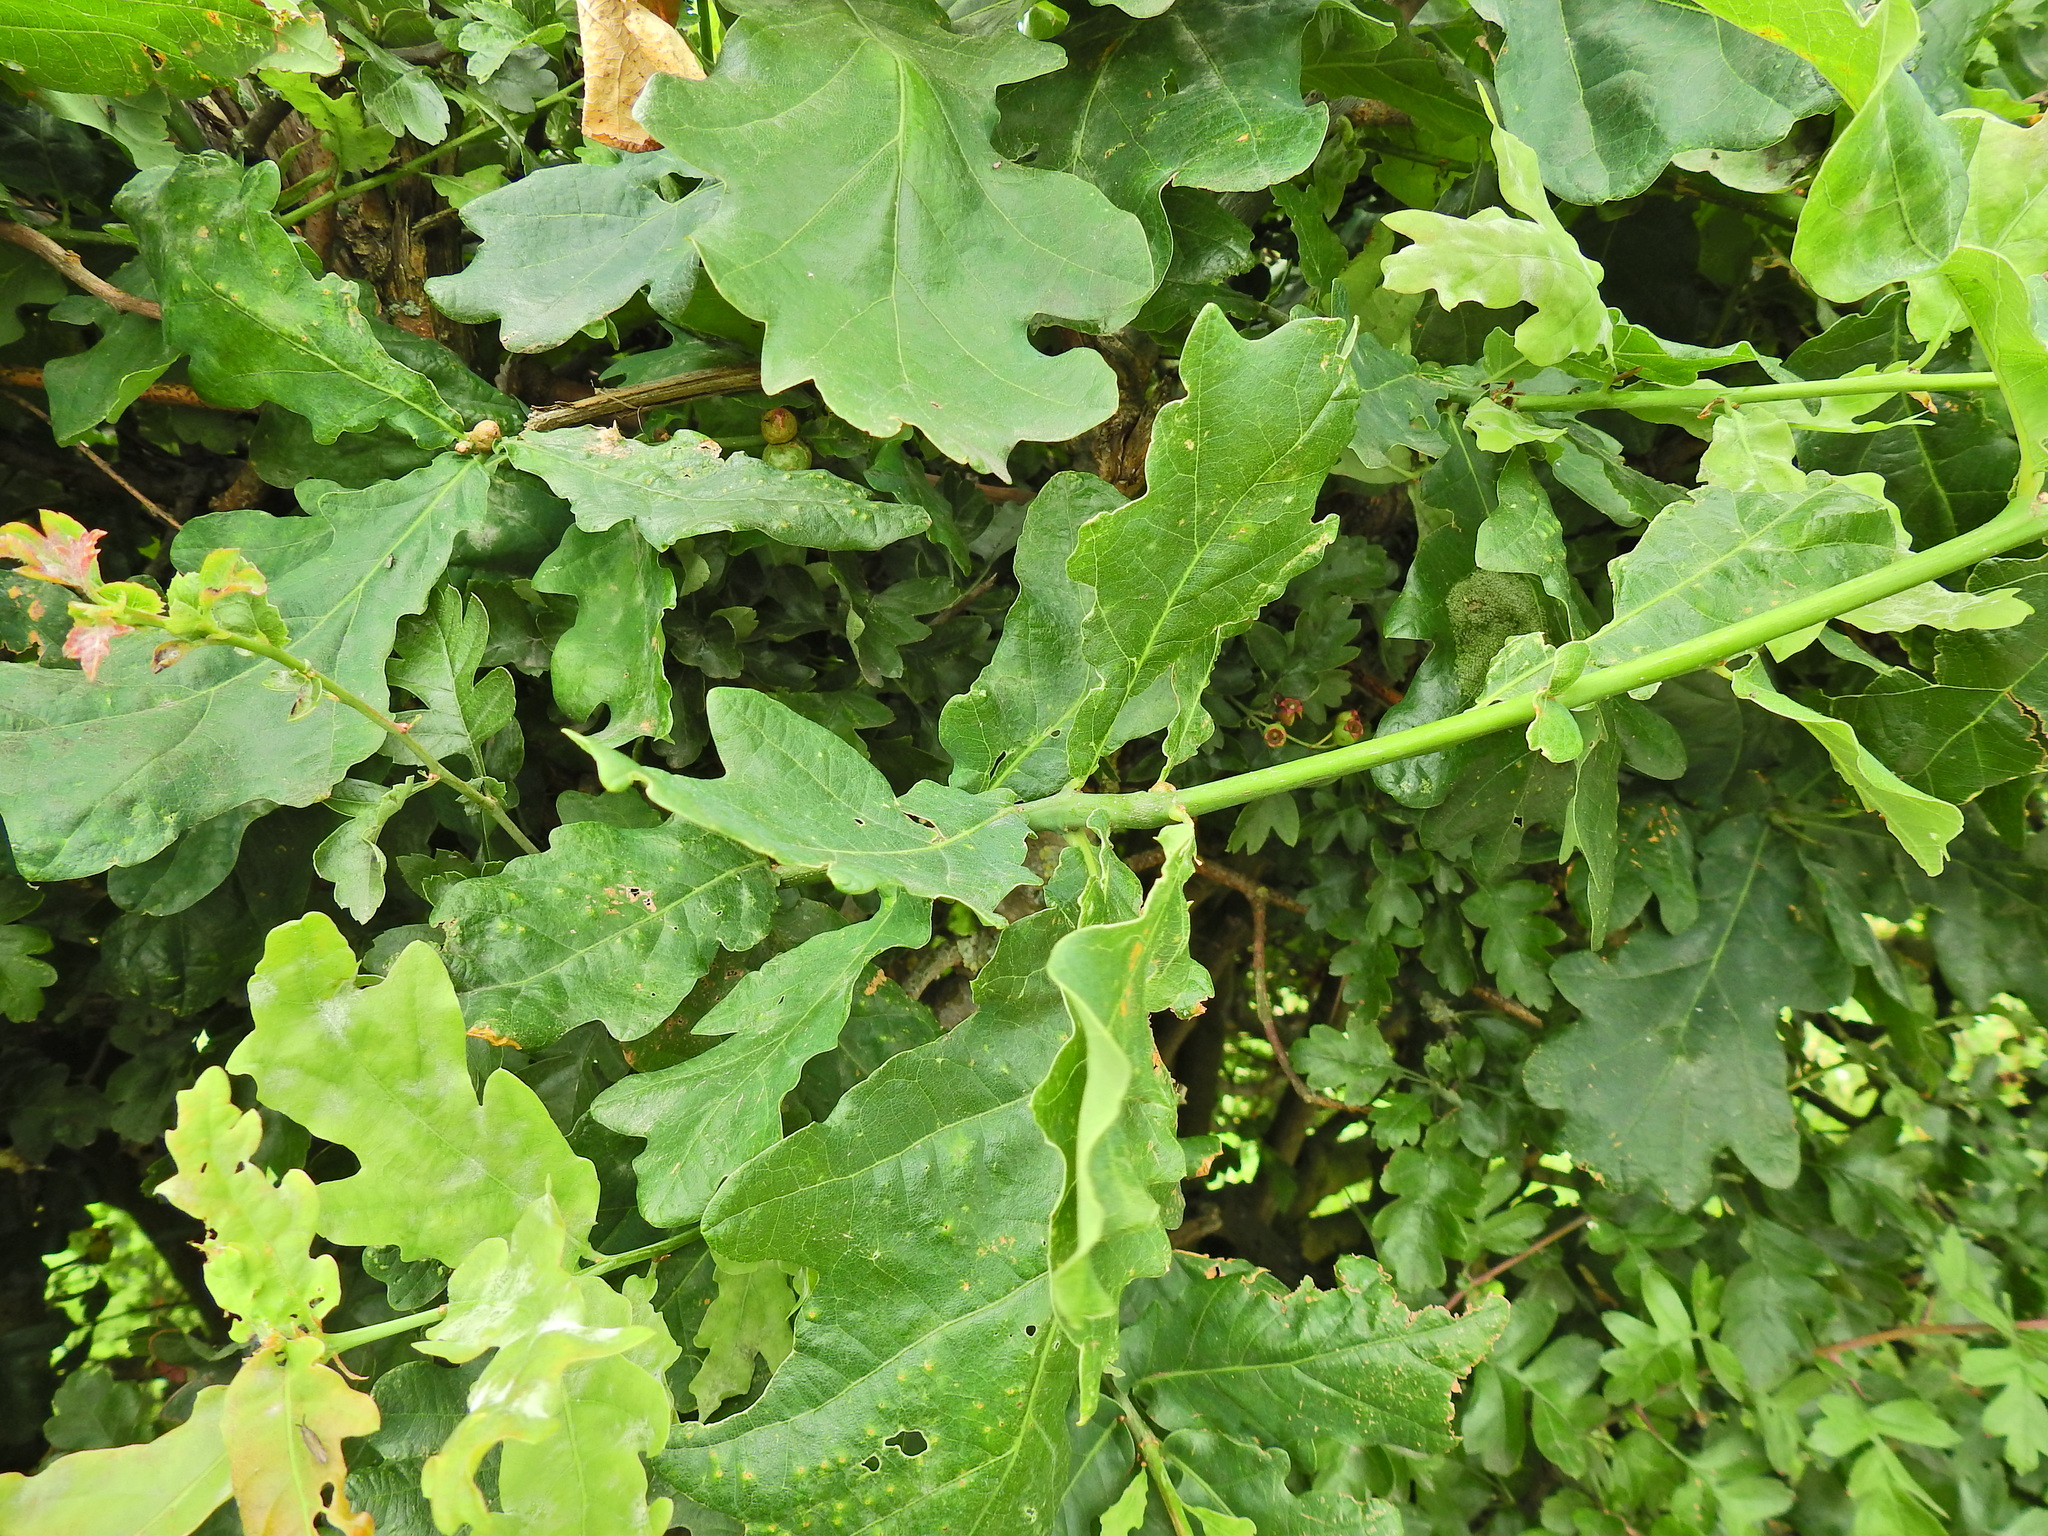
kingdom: Plantae
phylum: Tracheophyta
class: Magnoliopsida
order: Fagales
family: Fagaceae
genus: Quercus
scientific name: Quercus robur
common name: Pedunculate oak
